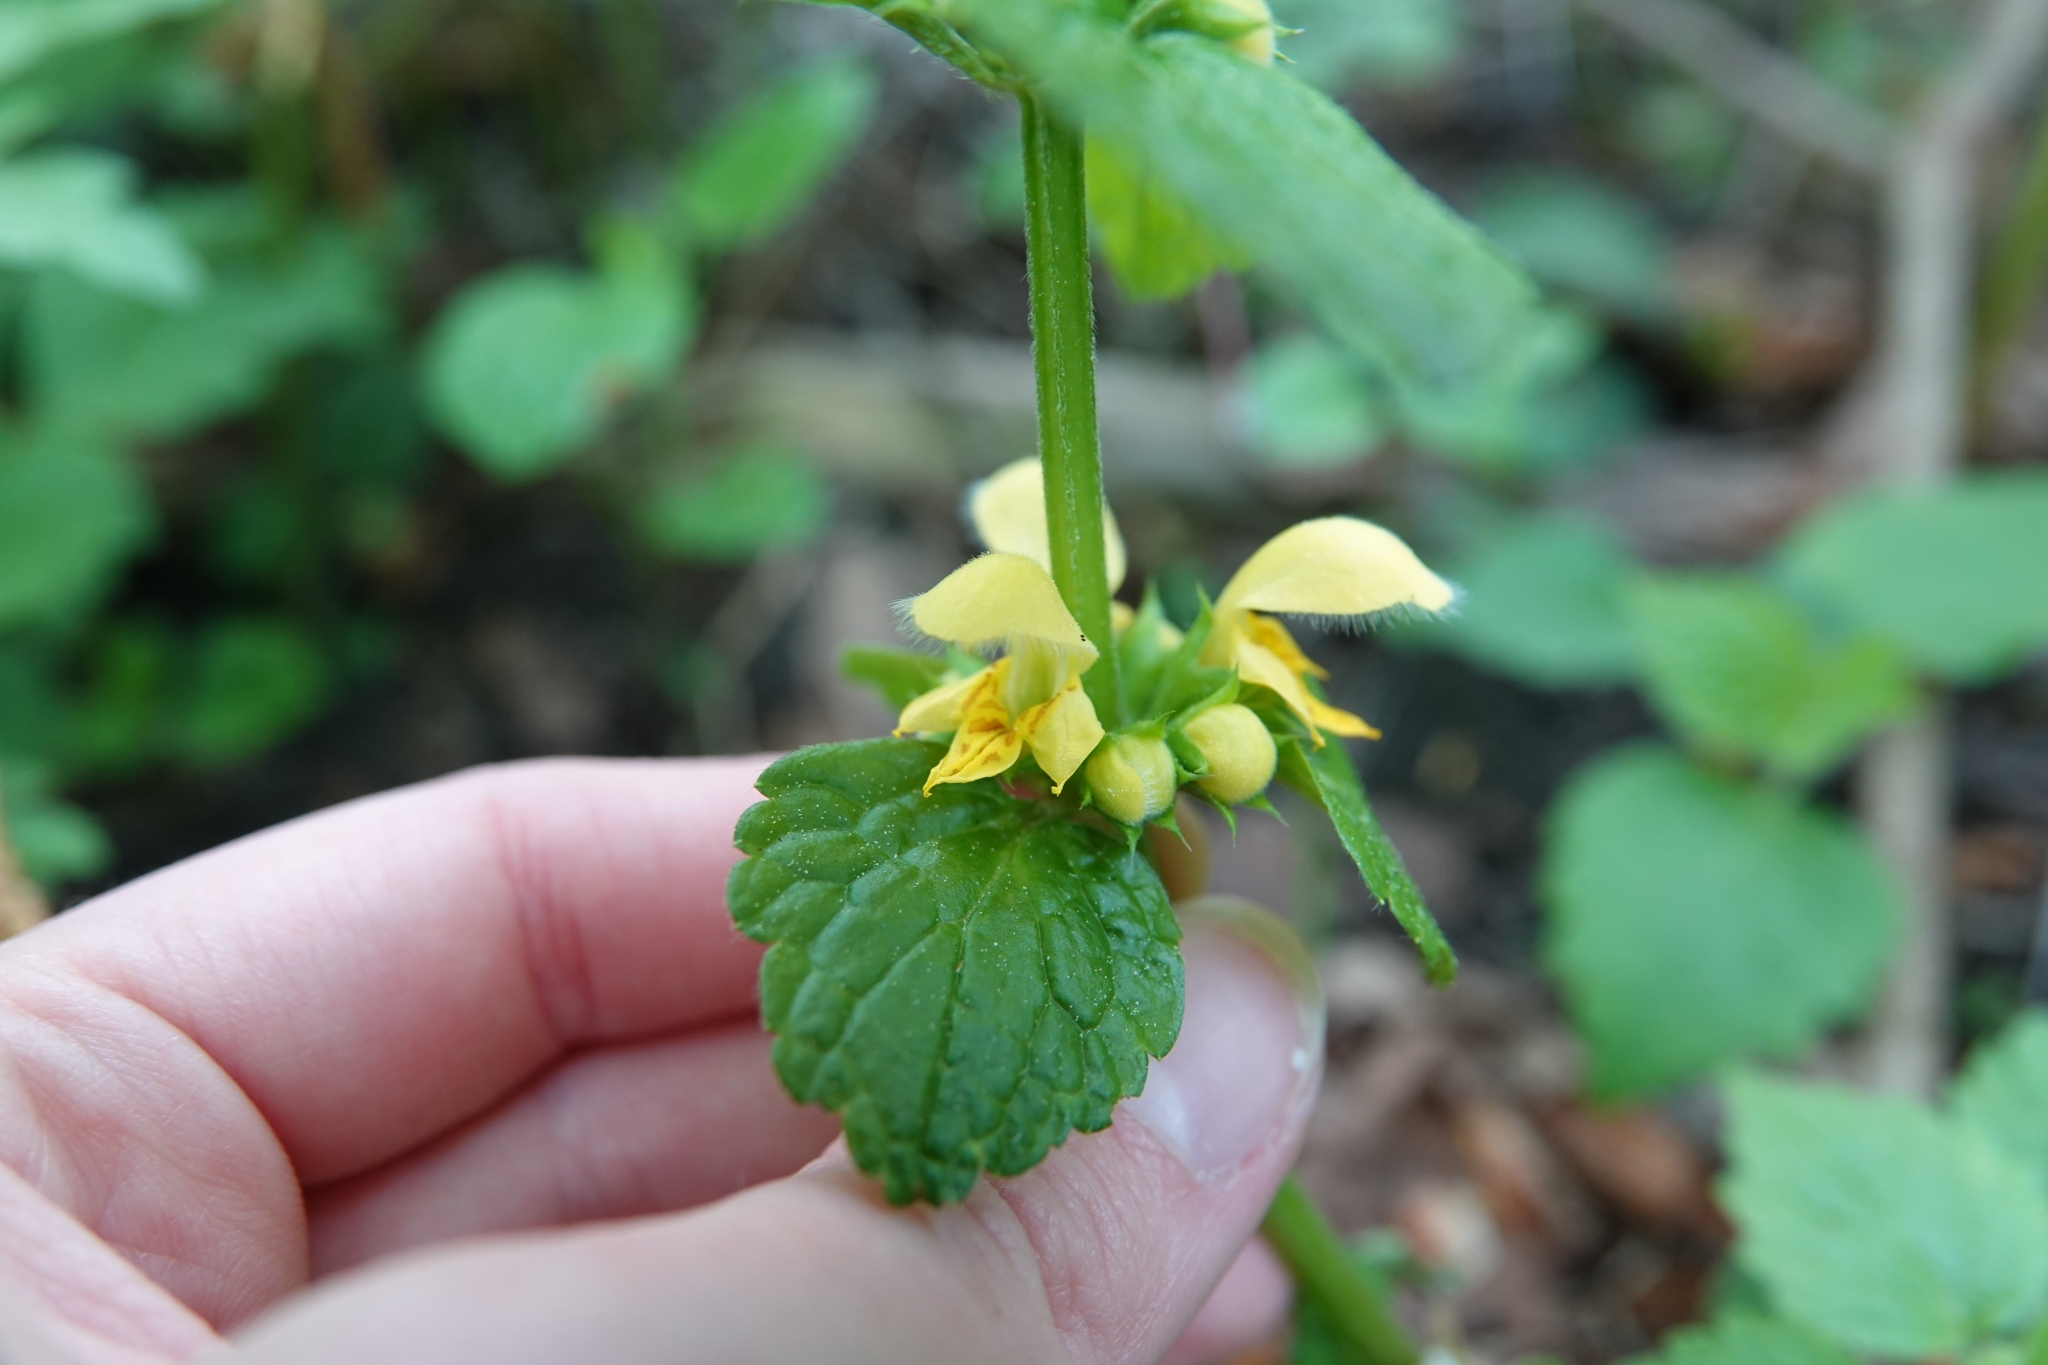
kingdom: Plantae
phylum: Tracheophyta
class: Magnoliopsida
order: Lamiales
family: Lamiaceae
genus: Lamium
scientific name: Lamium galeobdolon
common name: Yellow archangel
